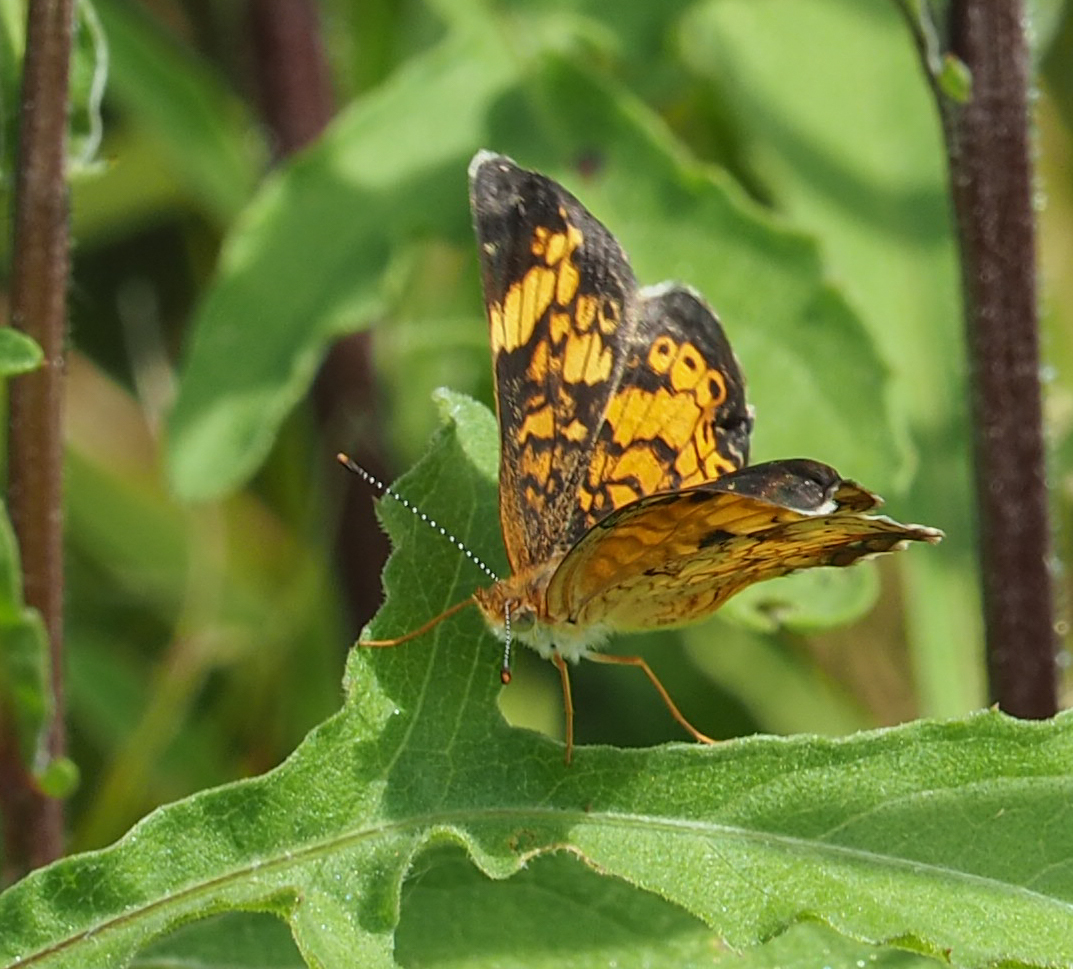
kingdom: Animalia
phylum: Arthropoda
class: Insecta
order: Lepidoptera
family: Nymphalidae
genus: Phyciodes
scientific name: Phyciodes tharos
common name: Pearl crescent
